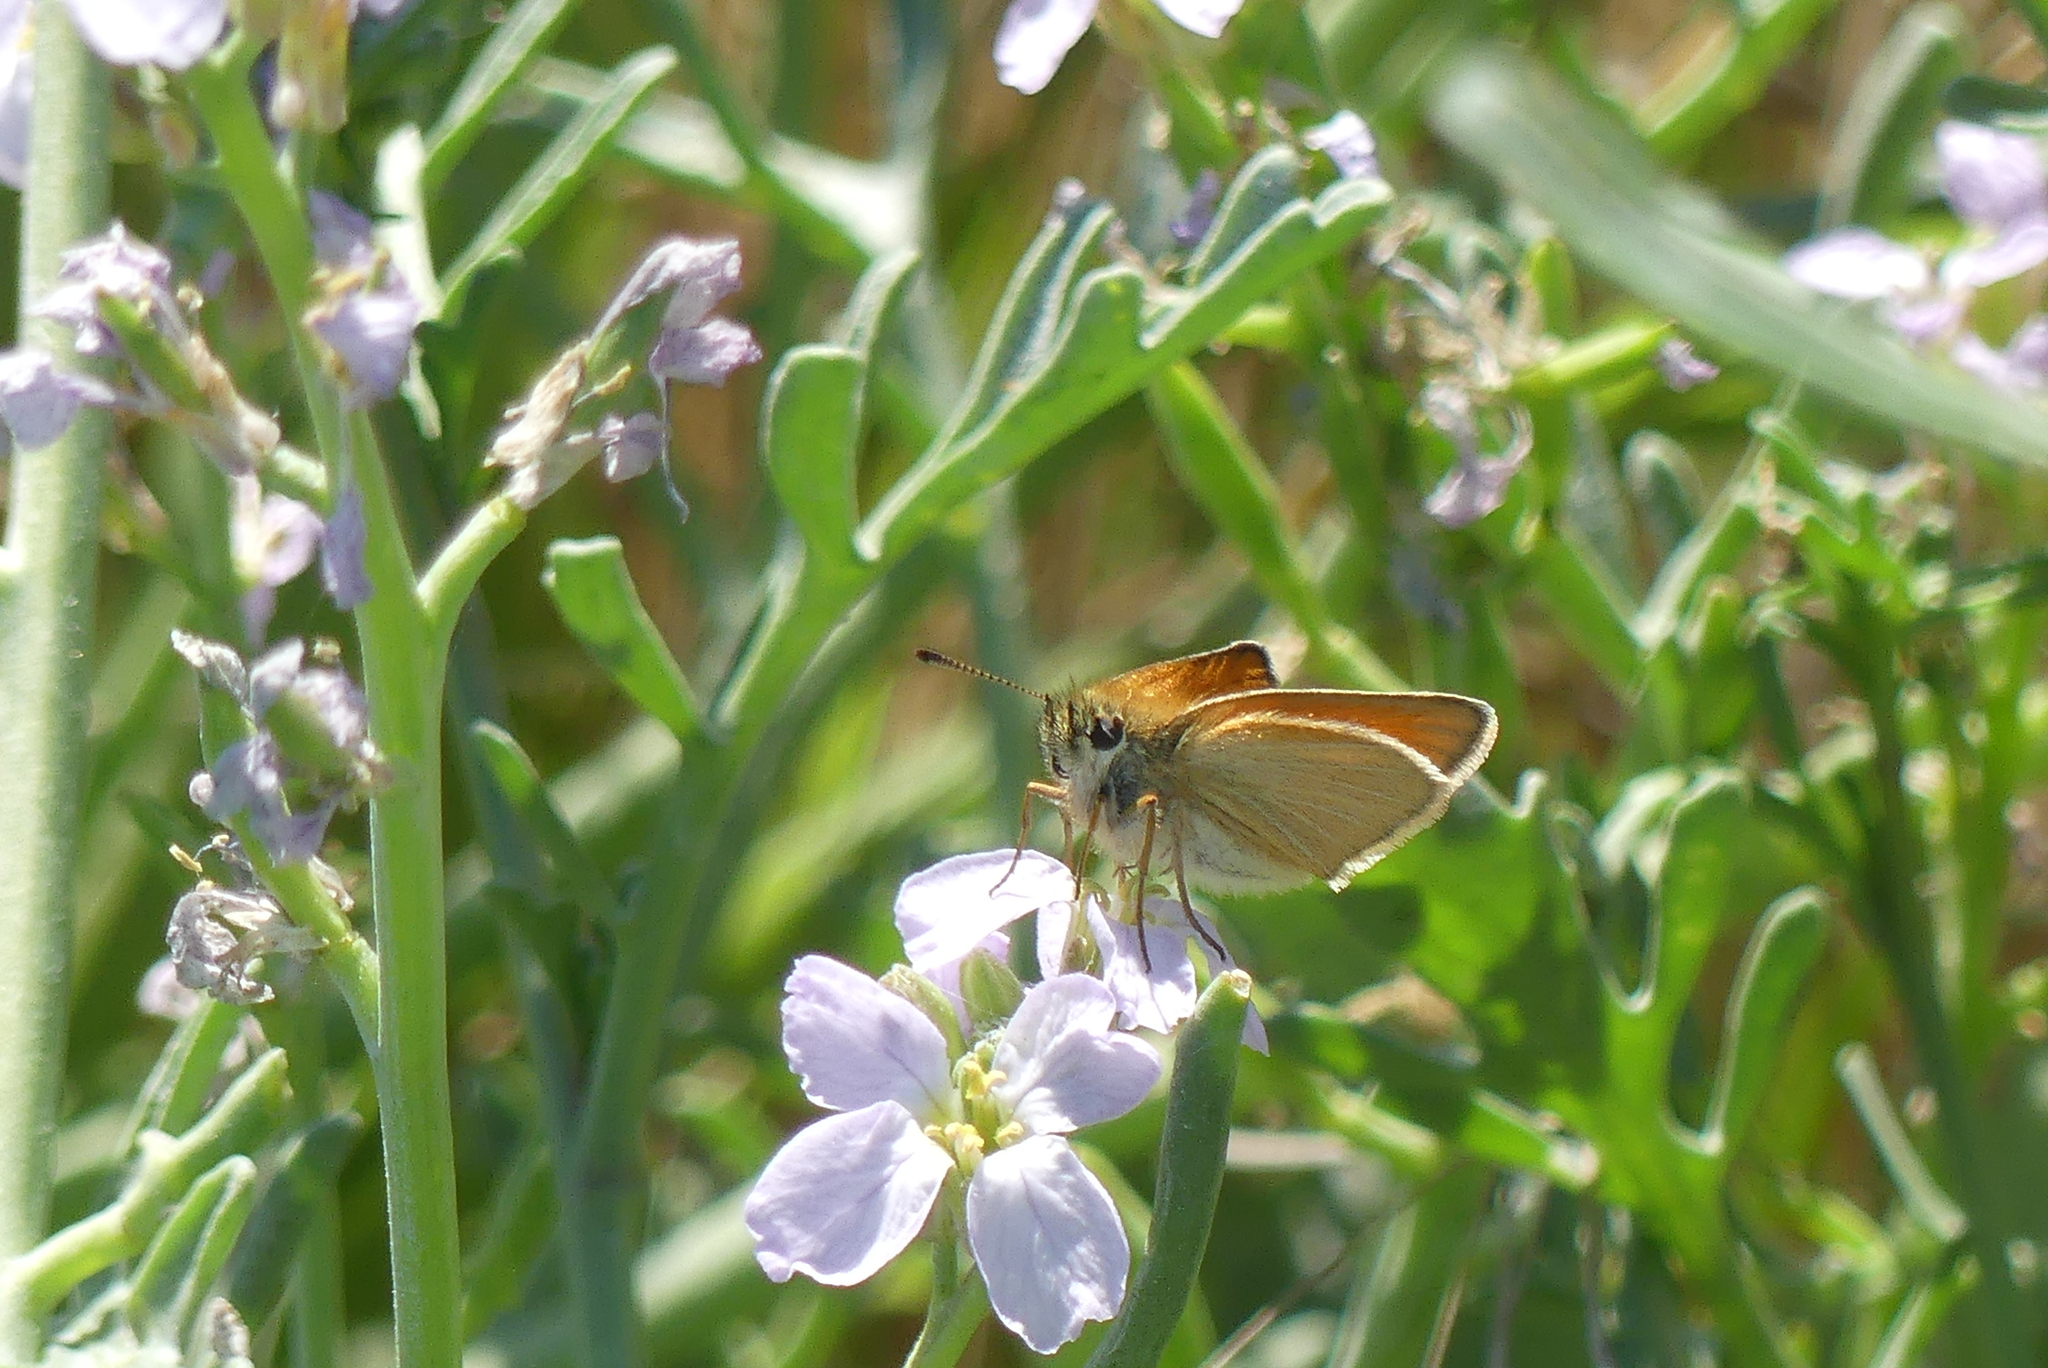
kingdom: Animalia
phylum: Arthropoda
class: Insecta
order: Lepidoptera
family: Hesperiidae
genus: Thymelicus
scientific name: Thymelicus lineola
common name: Essex skipper
